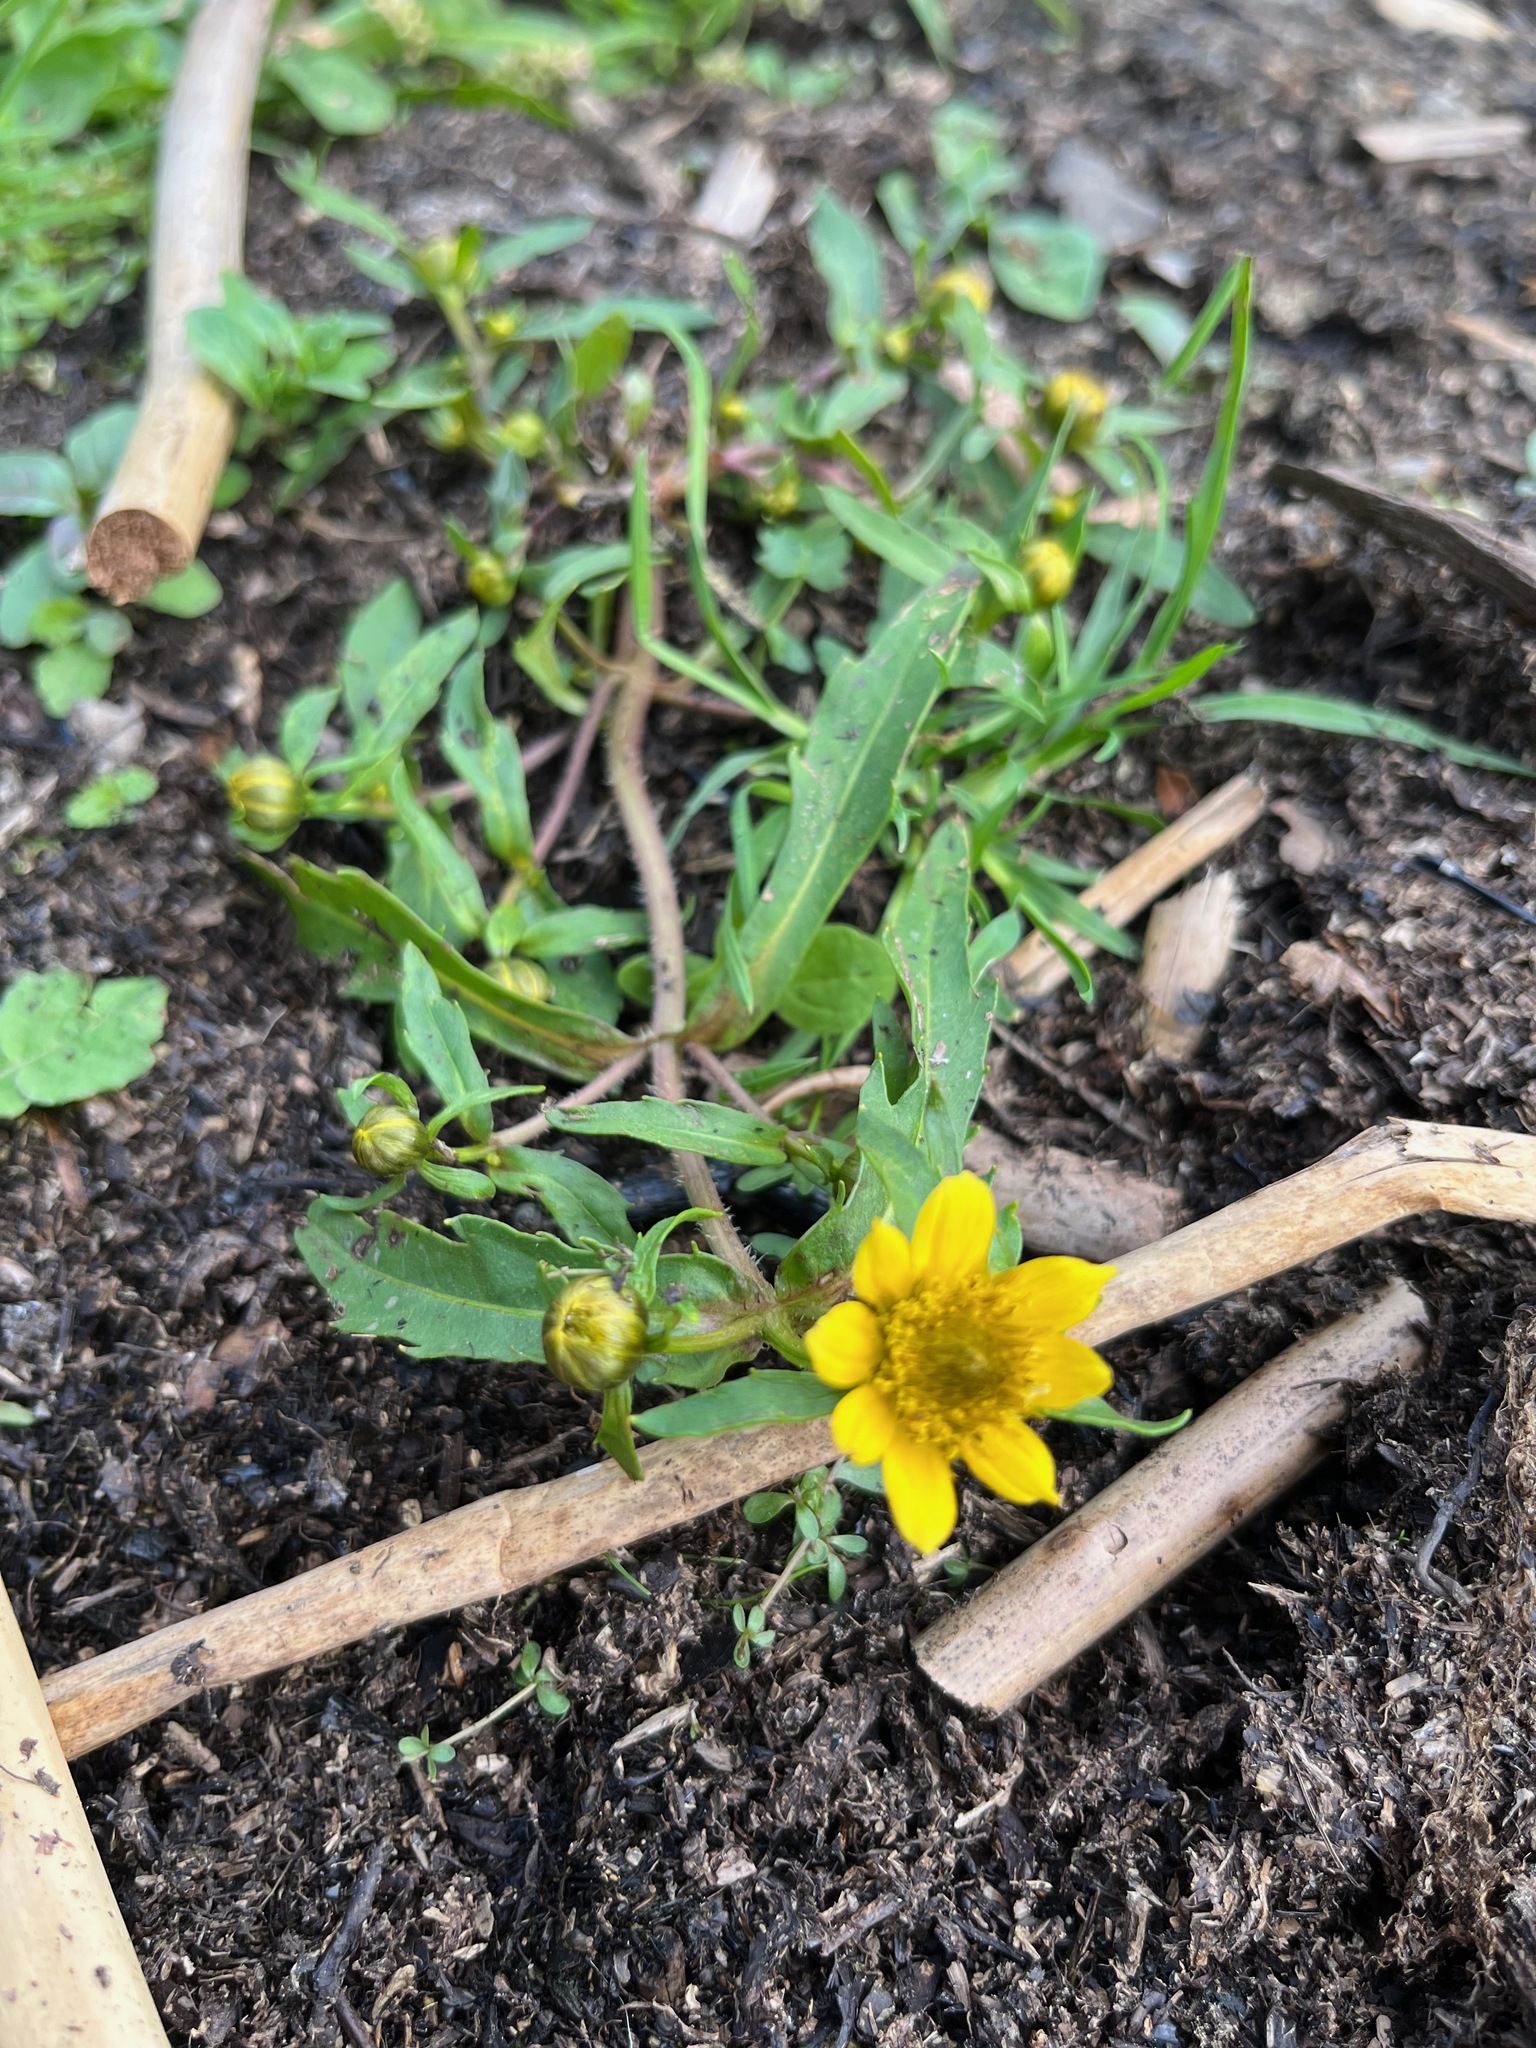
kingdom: Plantae
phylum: Tracheophyta
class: Magnoliopsida
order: Asterales
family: Asteraceae
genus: Bidens
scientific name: Bidens cernua
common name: Nodding bur-marigold
